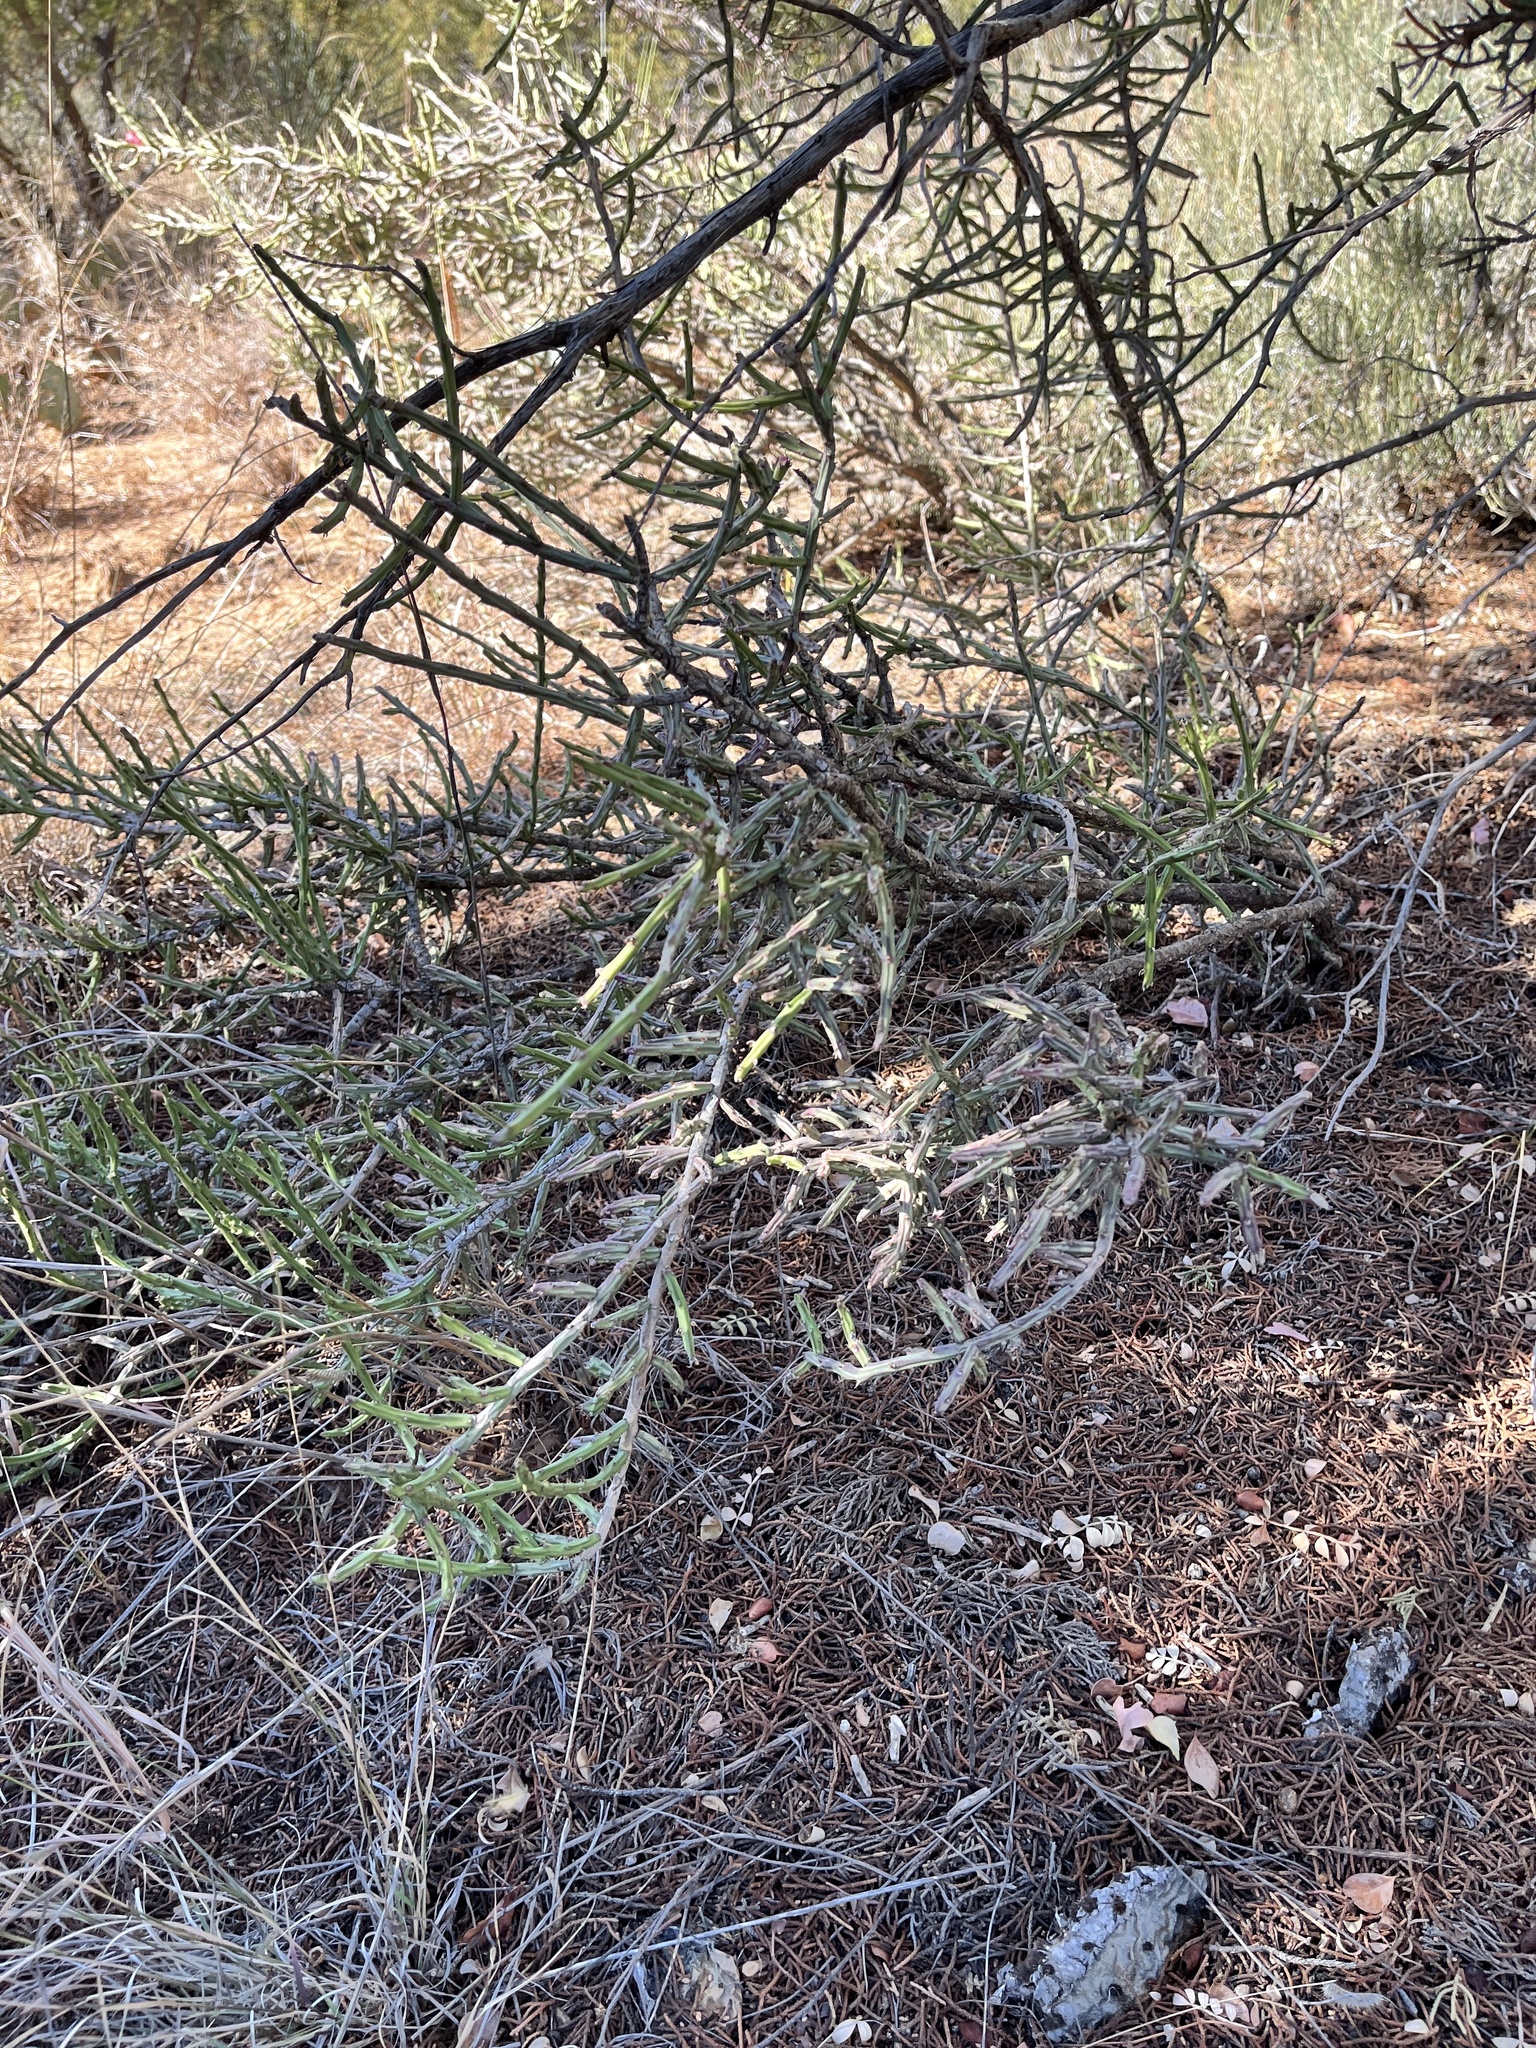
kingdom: Plantae
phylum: Tracheophyta
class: Magnoliopsida
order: Caryophyllales
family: Cactaceae
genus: Cylindropuntia
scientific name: Cylindropuntia leptocaulis
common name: Christmas cactus
